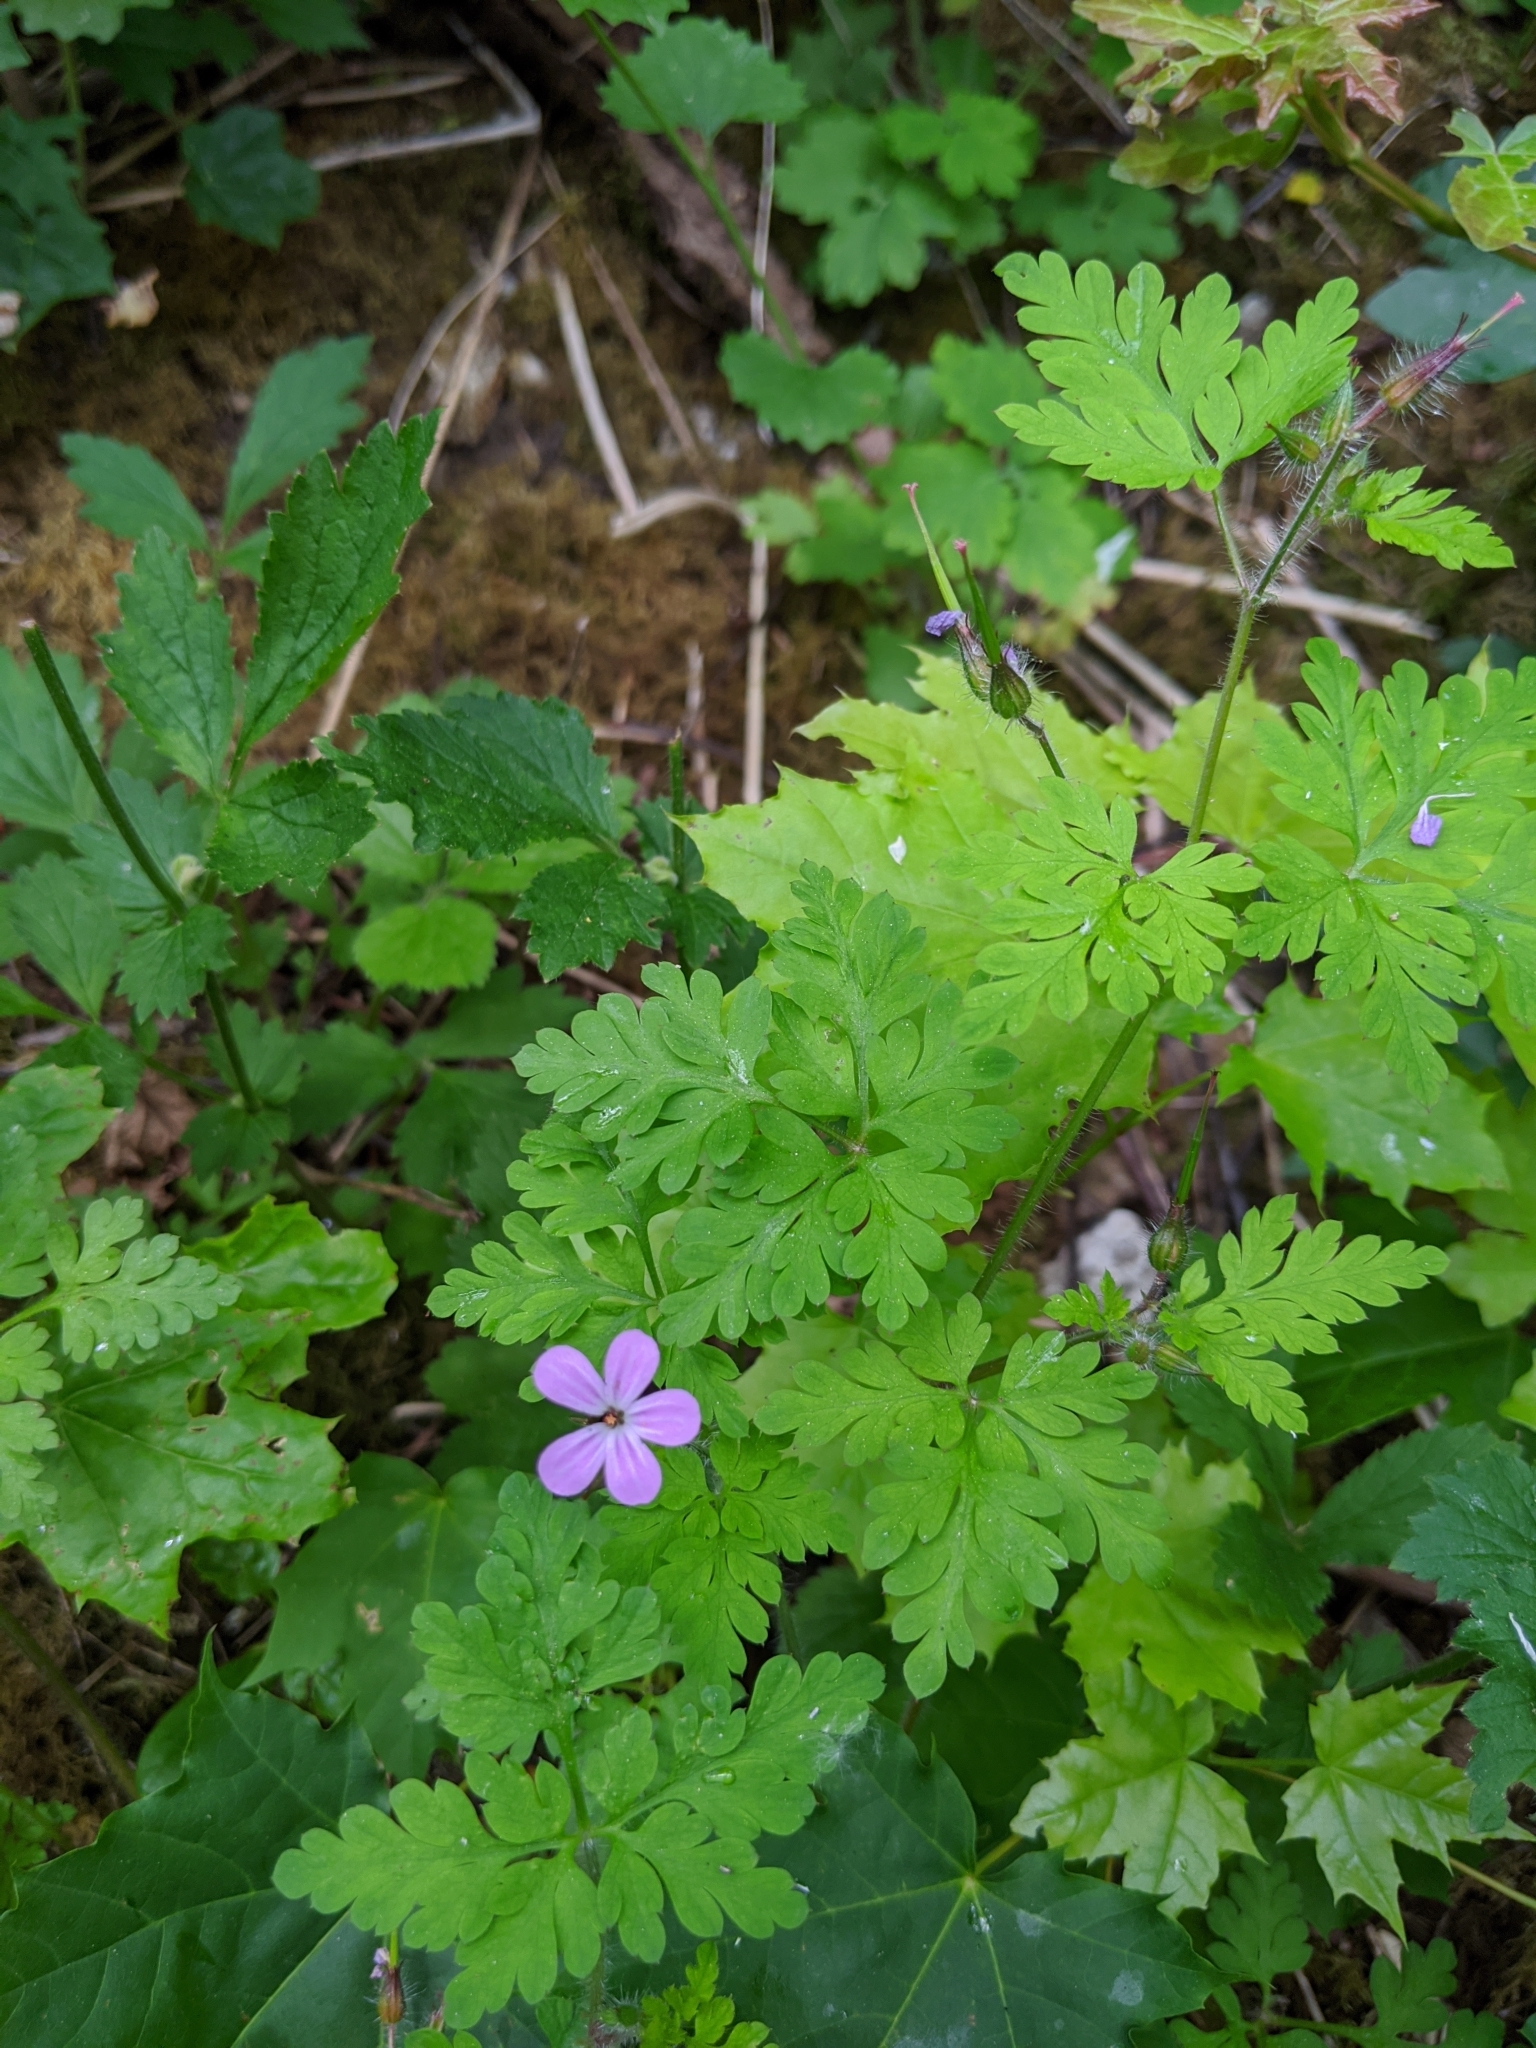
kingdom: Plantae
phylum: Tracheophyta
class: Magnoliopsida
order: Geraniales
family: Geraniaceae
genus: Geranium
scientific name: Geranium robertianum
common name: Herb-robert
